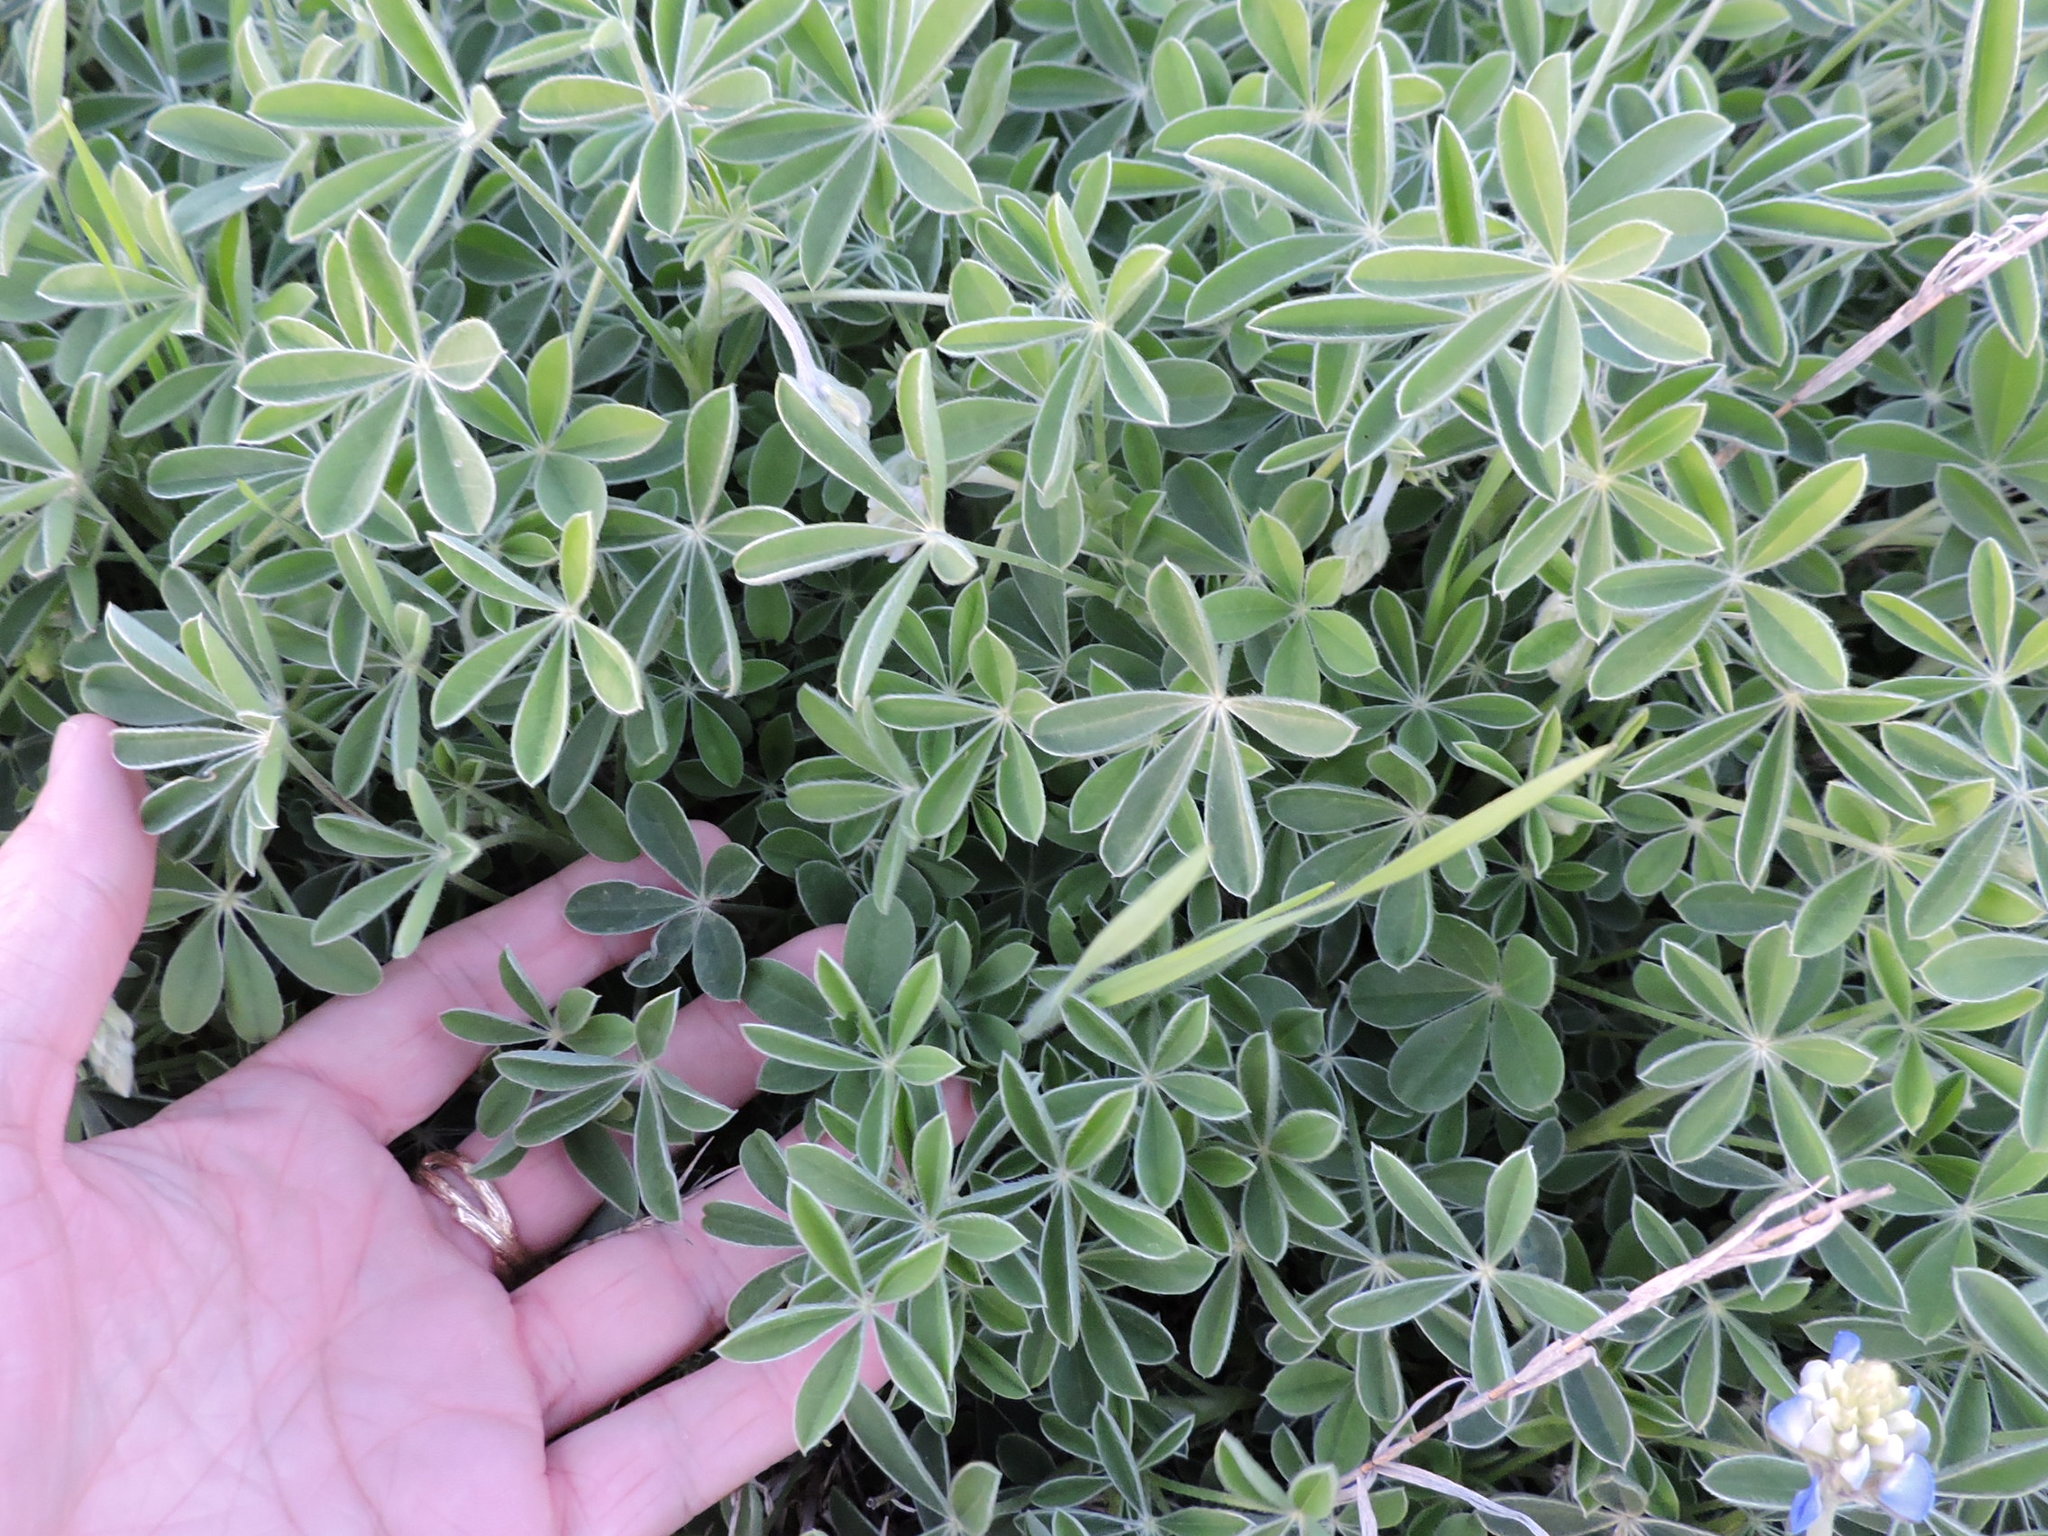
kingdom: Plantae
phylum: Tracheophyta
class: Magnoliopsida
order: Fabales
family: Fabaceae
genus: Lupinus
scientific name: Lupinus texensis
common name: Texas bluebonnet
